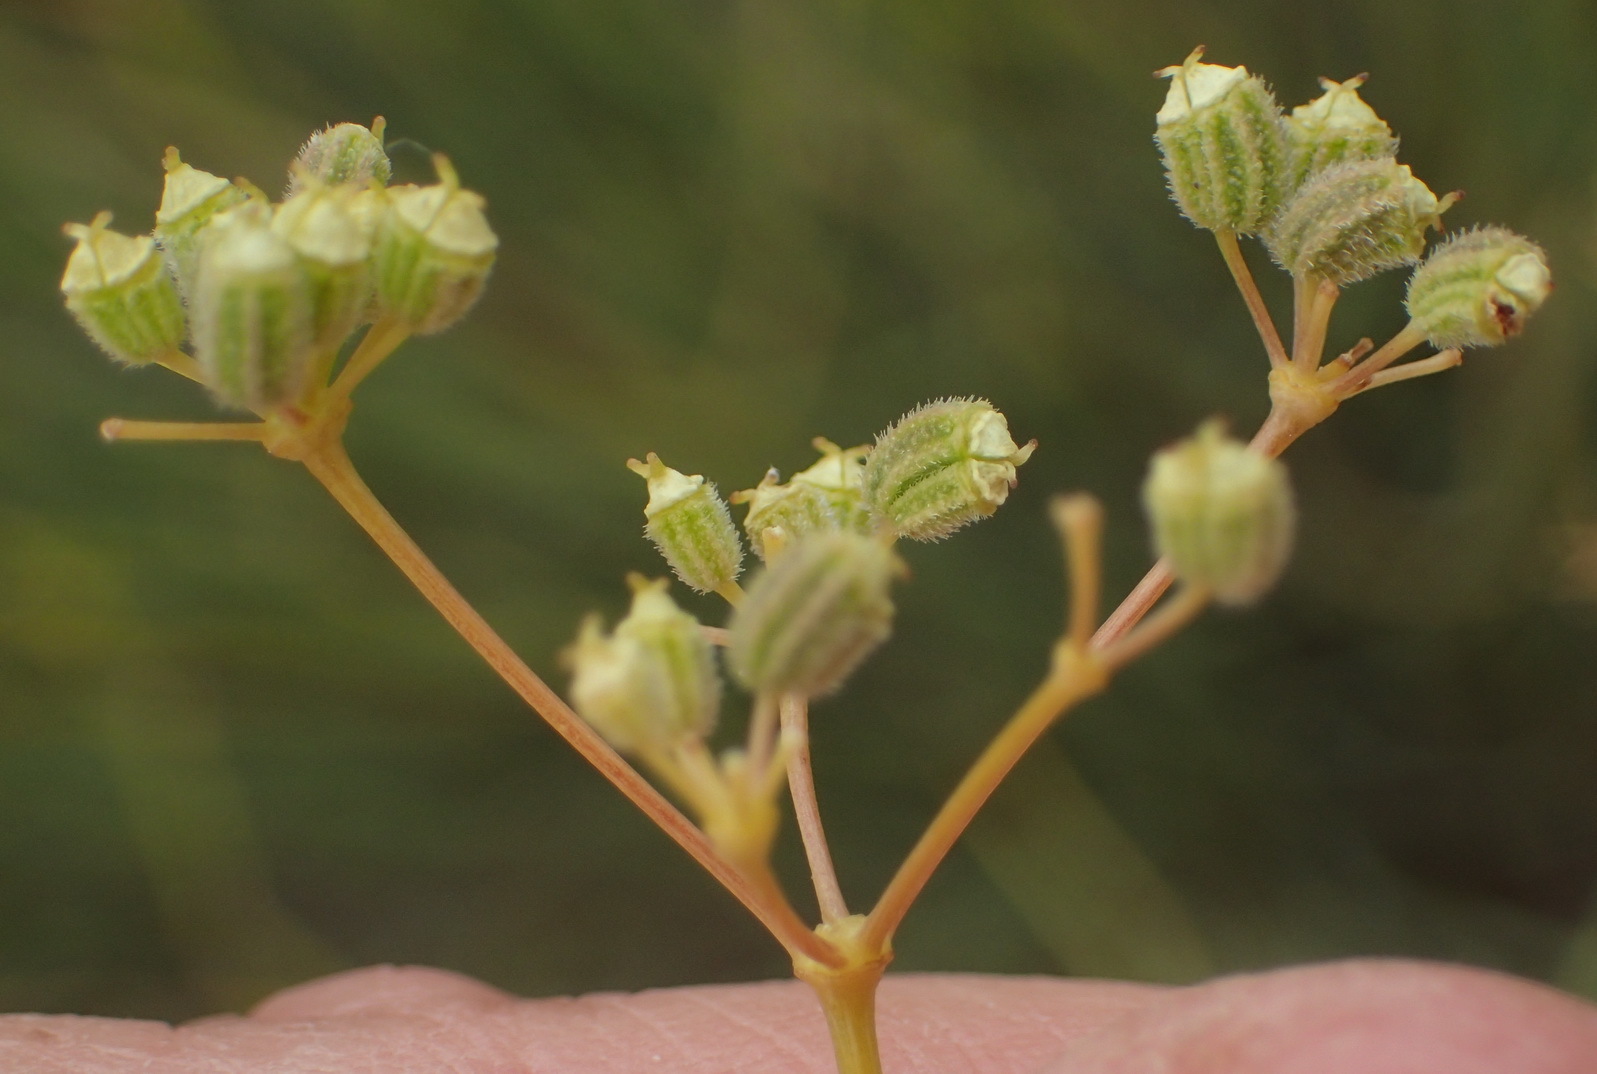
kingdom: Plantae
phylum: Tracheophyta
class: Magnoliopsida
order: Apiales
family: Apiaceae
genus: Deverra
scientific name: Deverra aphylla
